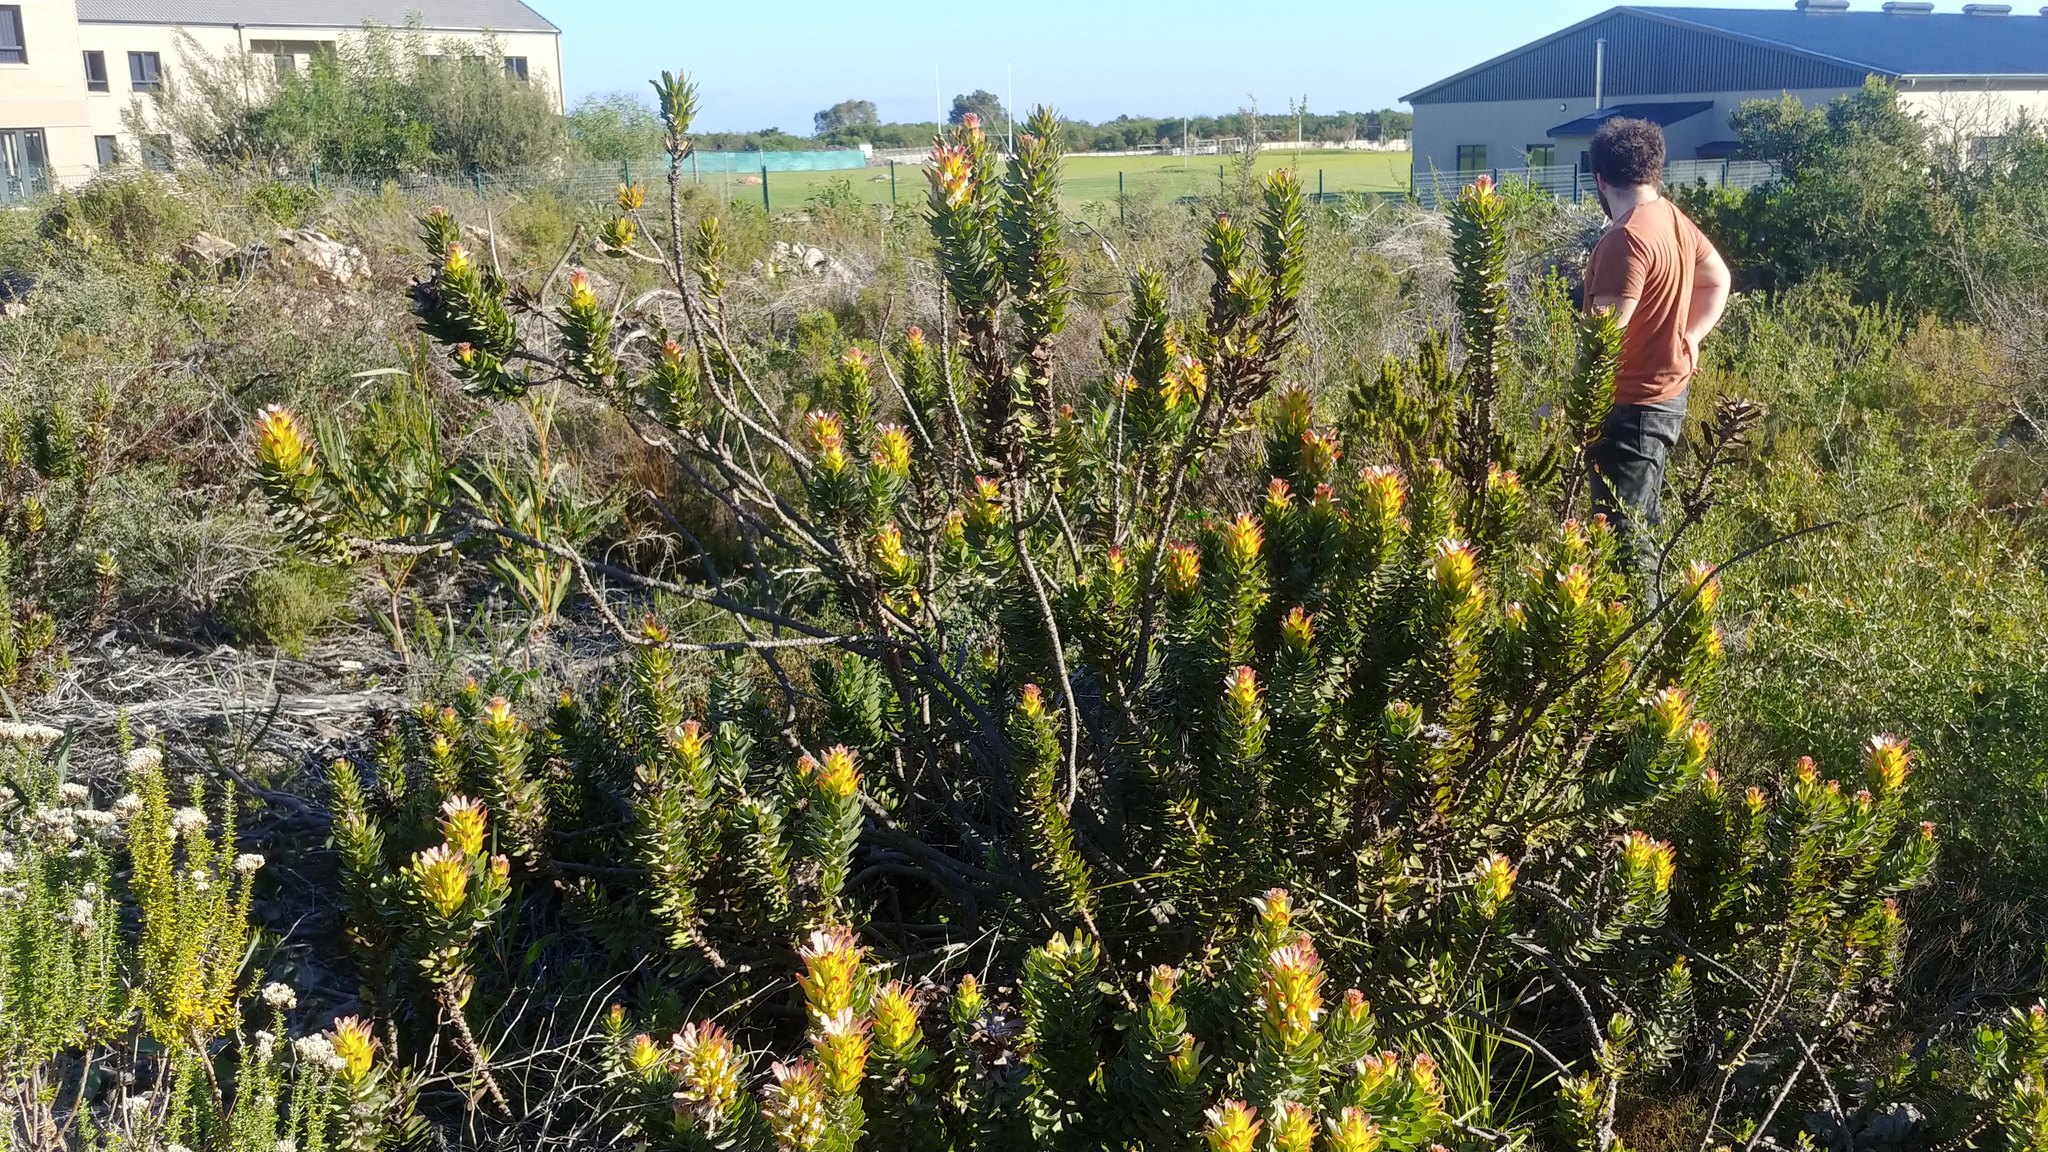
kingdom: Plantae
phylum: Tracheophyta
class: Magnoliopsida
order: Proteales
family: Proteaceae
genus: Mimetes
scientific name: Mimetes cucullatus
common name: Common pagoda
